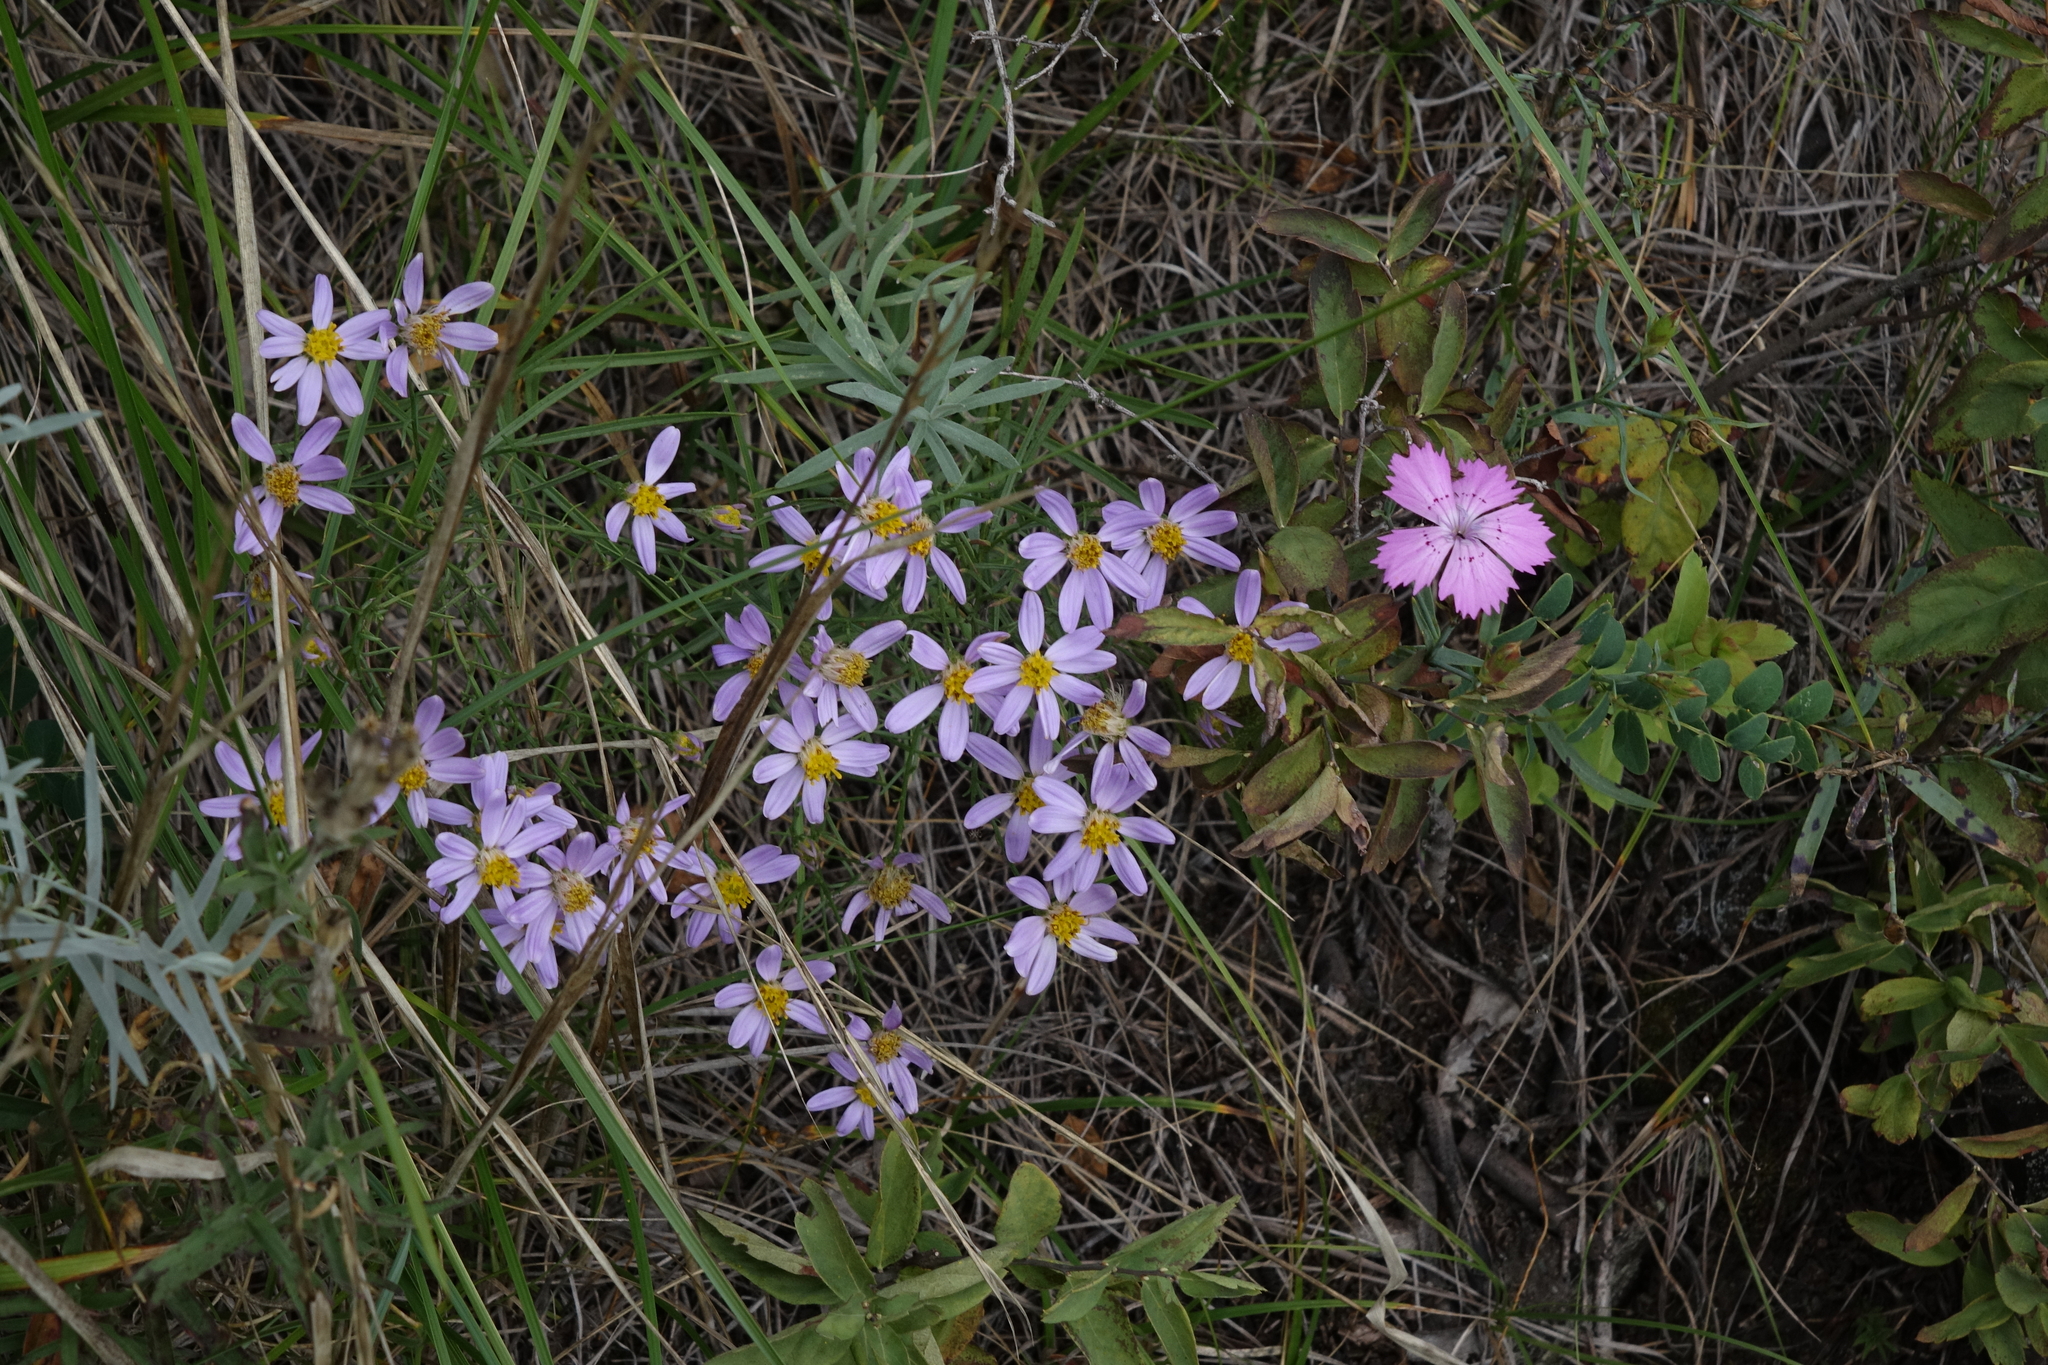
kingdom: Plantae
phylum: Tracheophyta
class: Magnoliopsida
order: Asterales
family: Asteraceae
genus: Galatella
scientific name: Galatella angustissima
